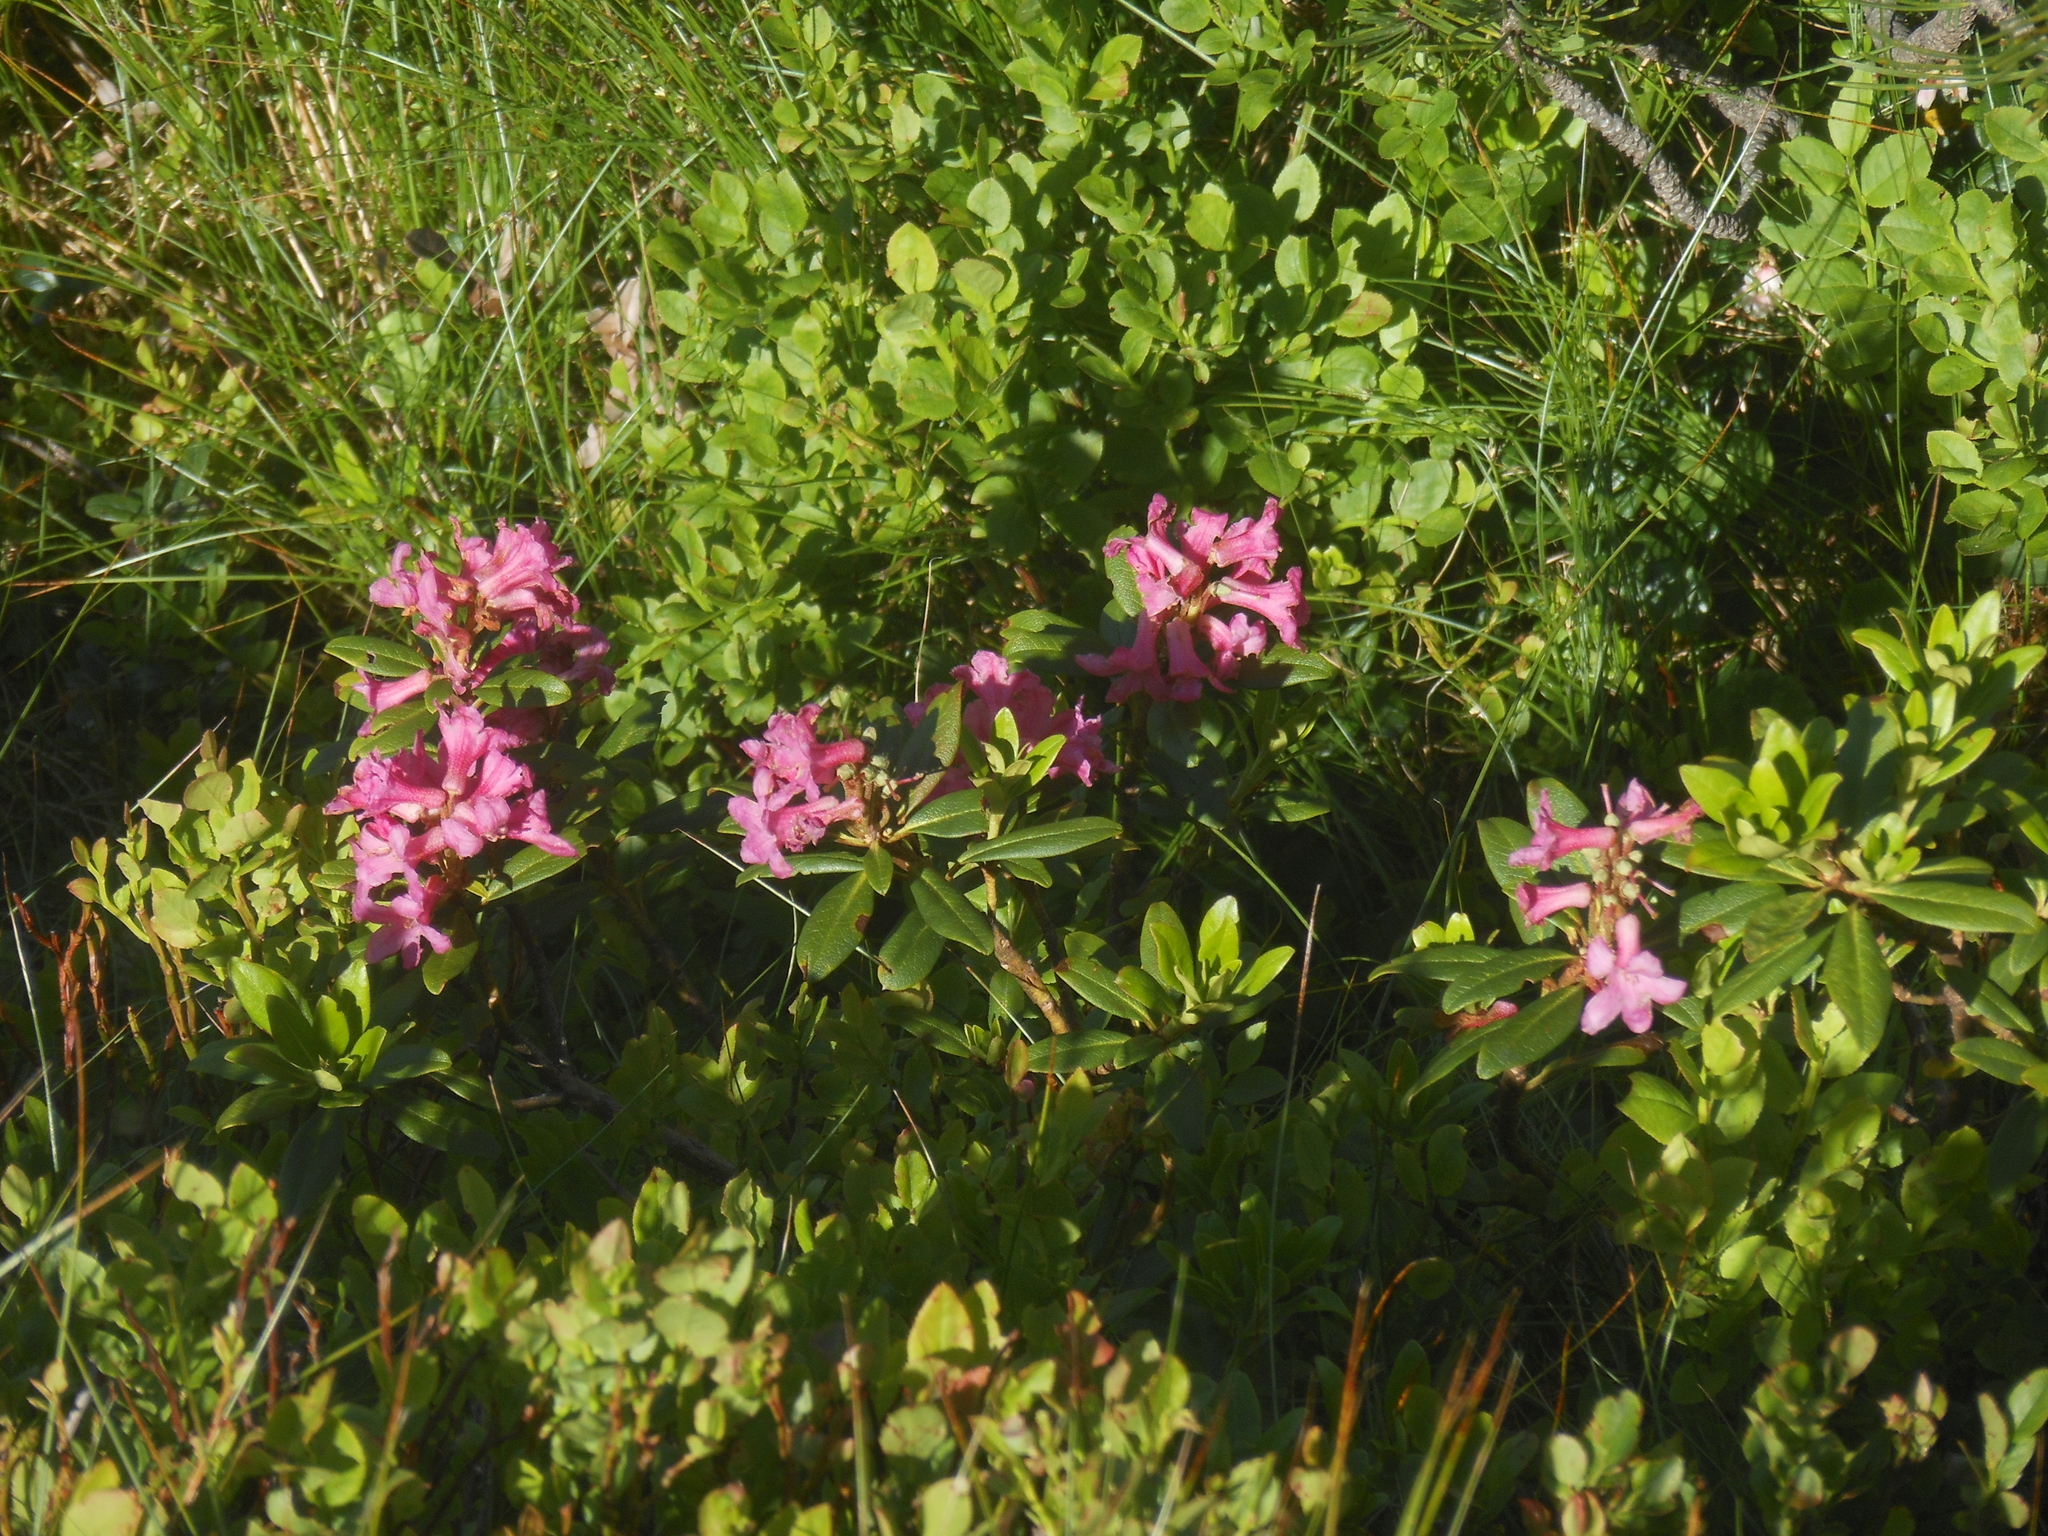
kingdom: Plantae
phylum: Tracheophyta
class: Magnoliopsida
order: Ericales
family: Ericaceae
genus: Rhododendron
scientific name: Rhododendron ferrugineum
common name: Alpenrose
